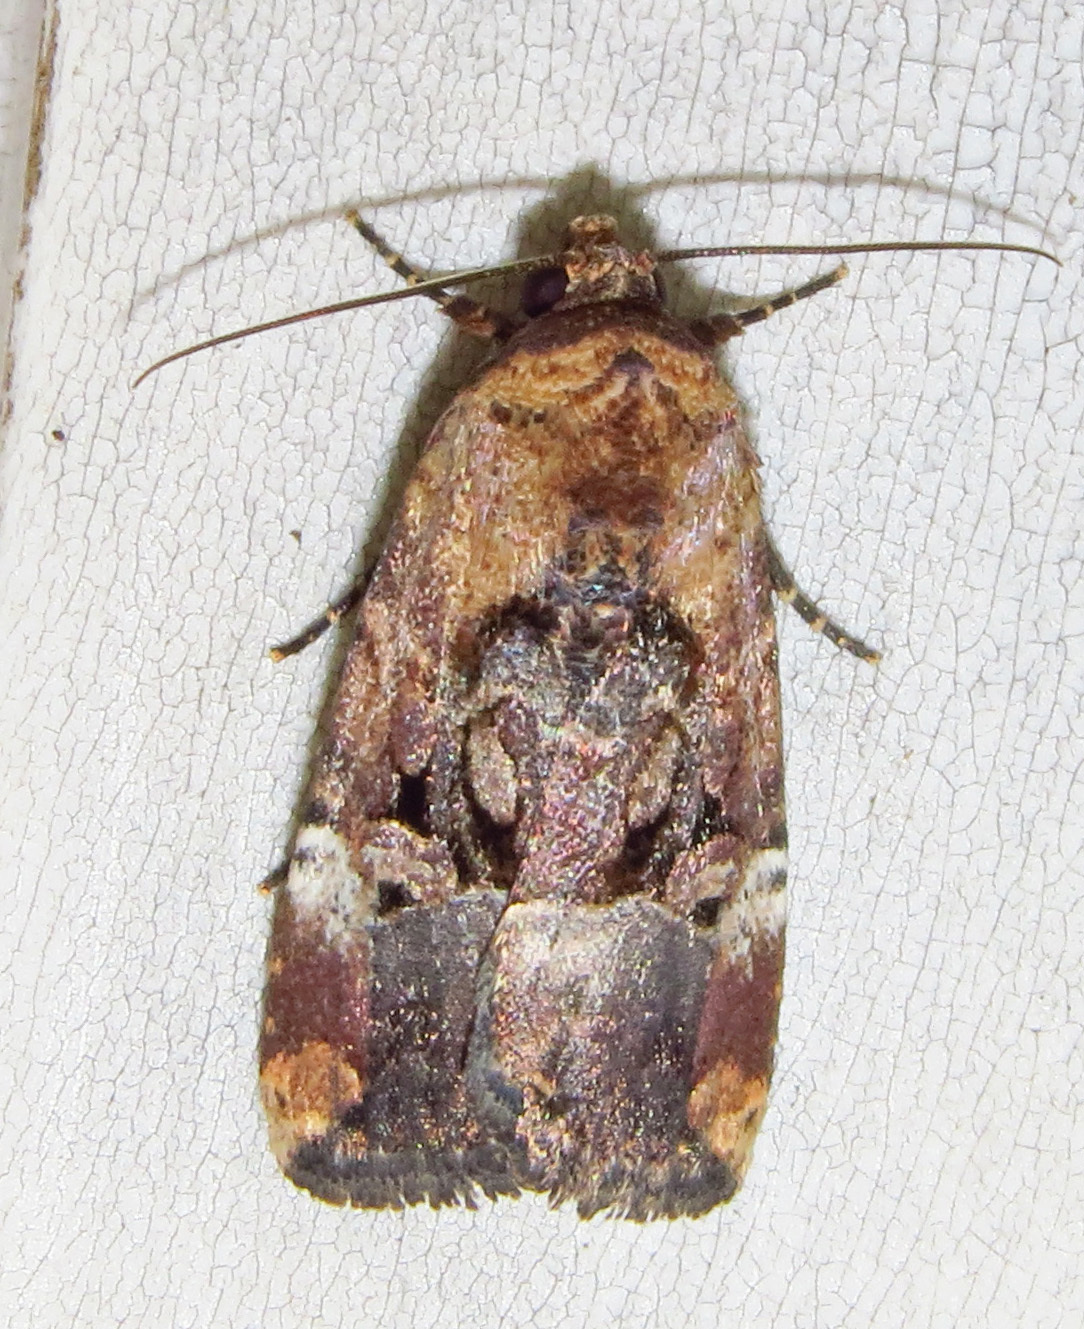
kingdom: Animalia
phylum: Arthropoda
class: Insecta
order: Lepidoptera
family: Noctuidae
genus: Elaphria
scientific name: Elaphria chalcedonia
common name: Chalcedony midget
